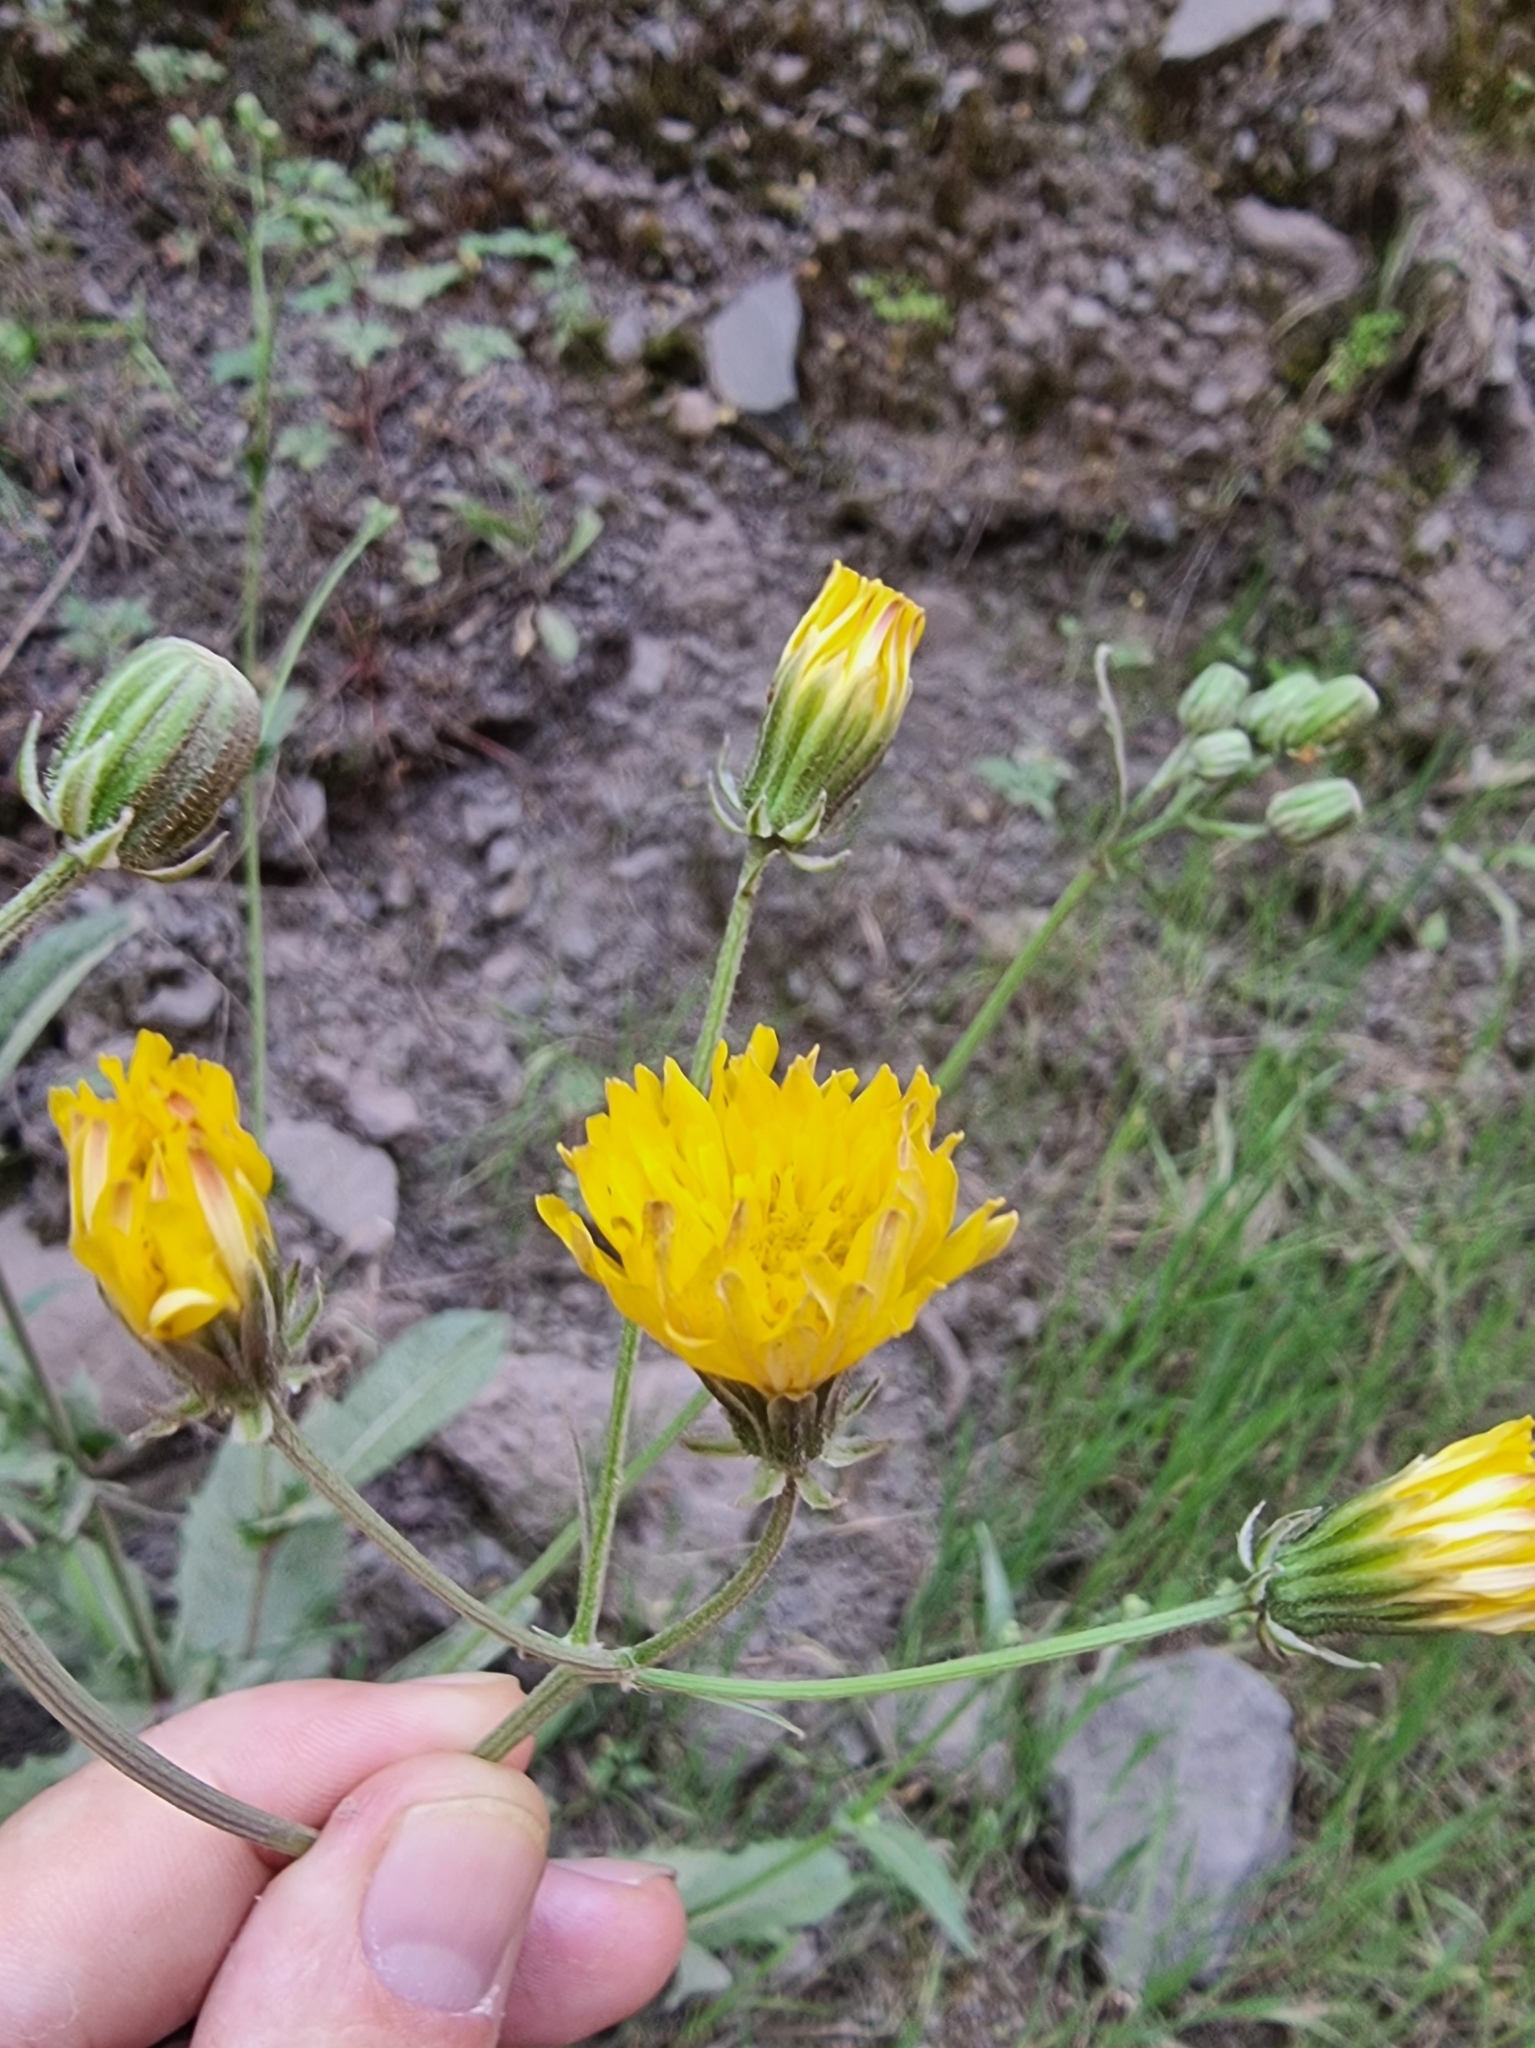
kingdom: Plantae
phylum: Tracheophyta
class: Magnoliopsida
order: Asterales
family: Asteraceae
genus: Crepis
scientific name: Crepis vesicaria
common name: Beaked hawksbeard
